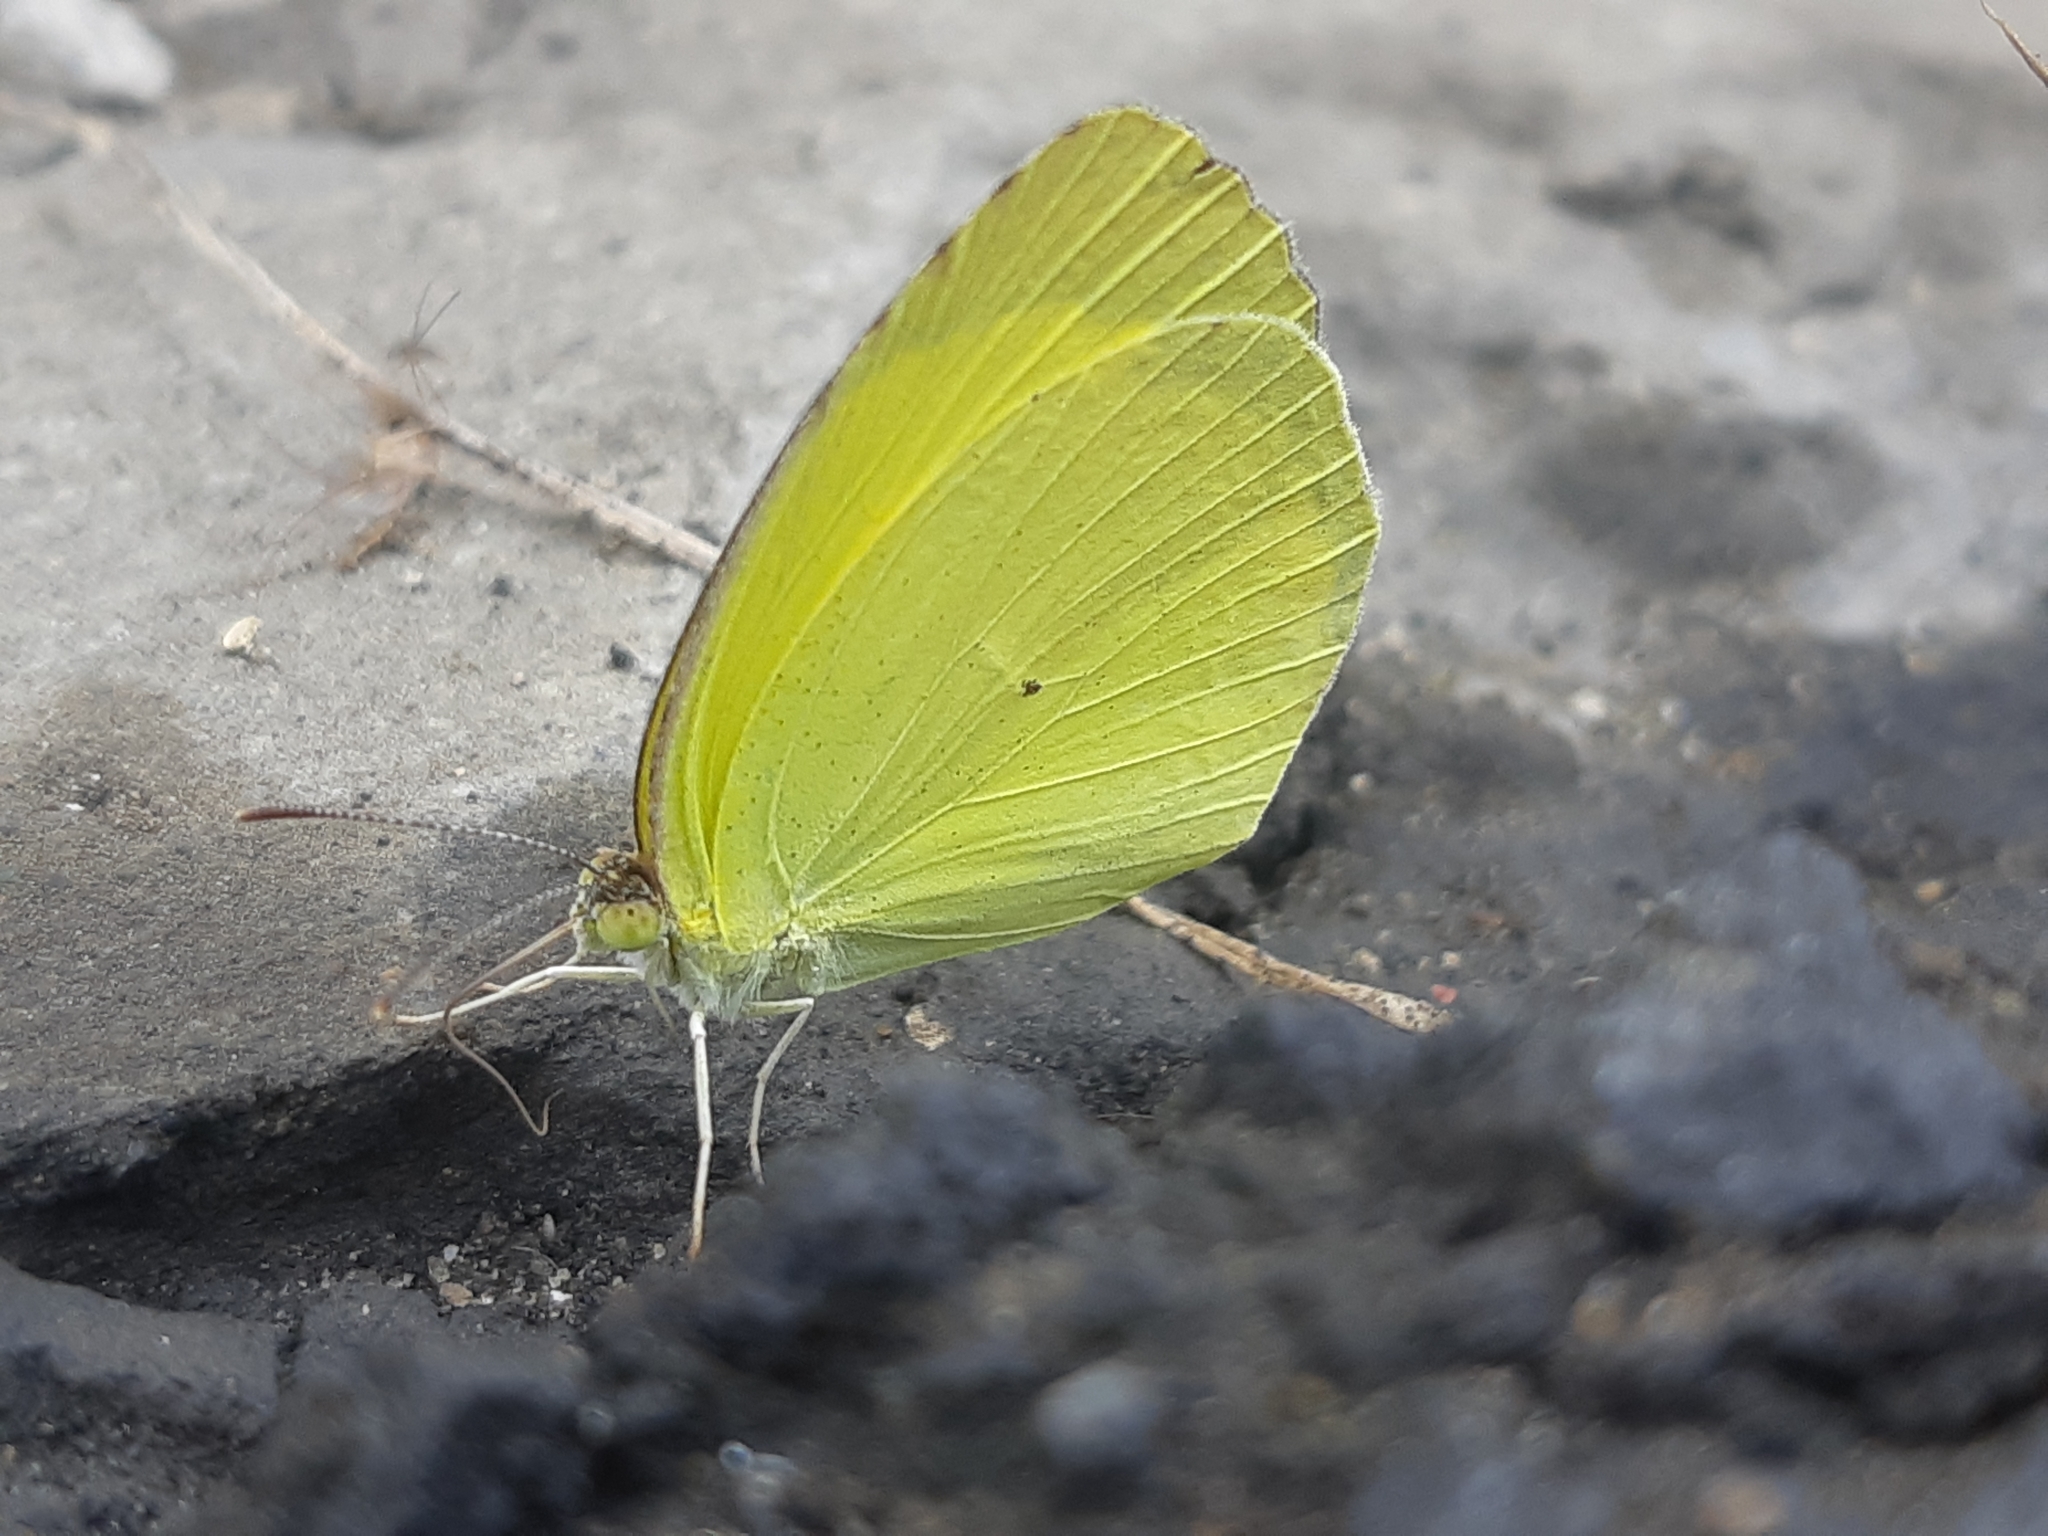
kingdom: Animalia
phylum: Arthropoda
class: Insecta
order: Lepidoptera
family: Pieridae
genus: Pyrisitia
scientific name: Pyrisitia nise
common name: Mimosa yellow
